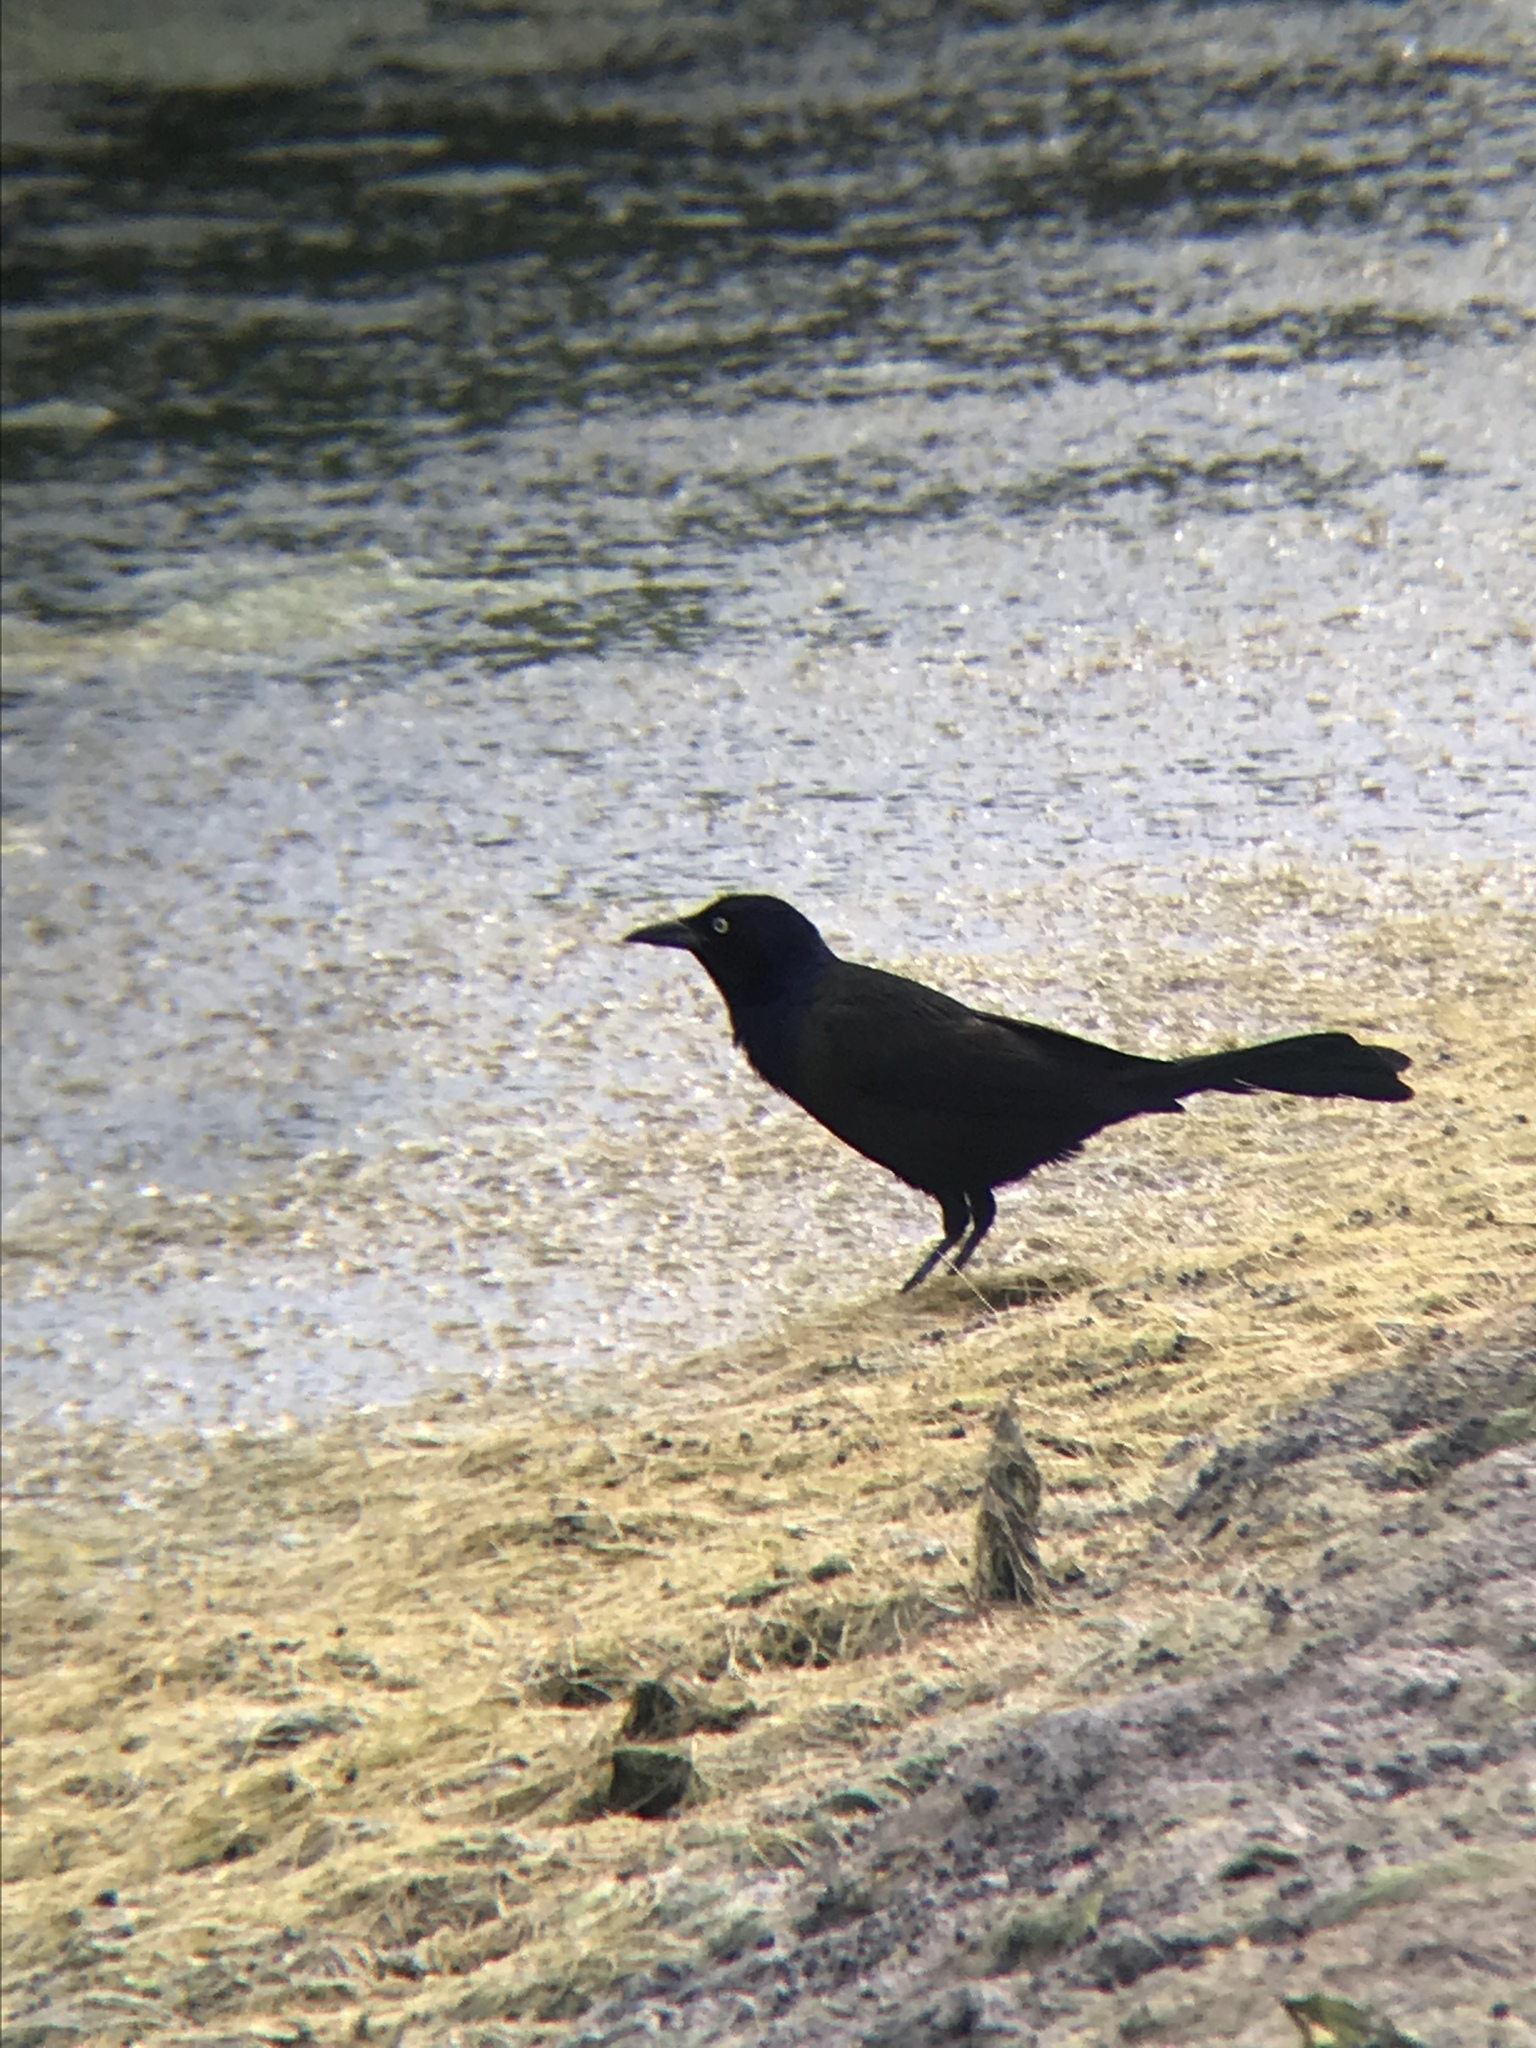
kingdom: Animalia
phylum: Chordata
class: Aves
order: Passeriformes
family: Icteridae
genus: Quiscalus
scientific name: Quiscalus quiscula
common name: Common grackle
